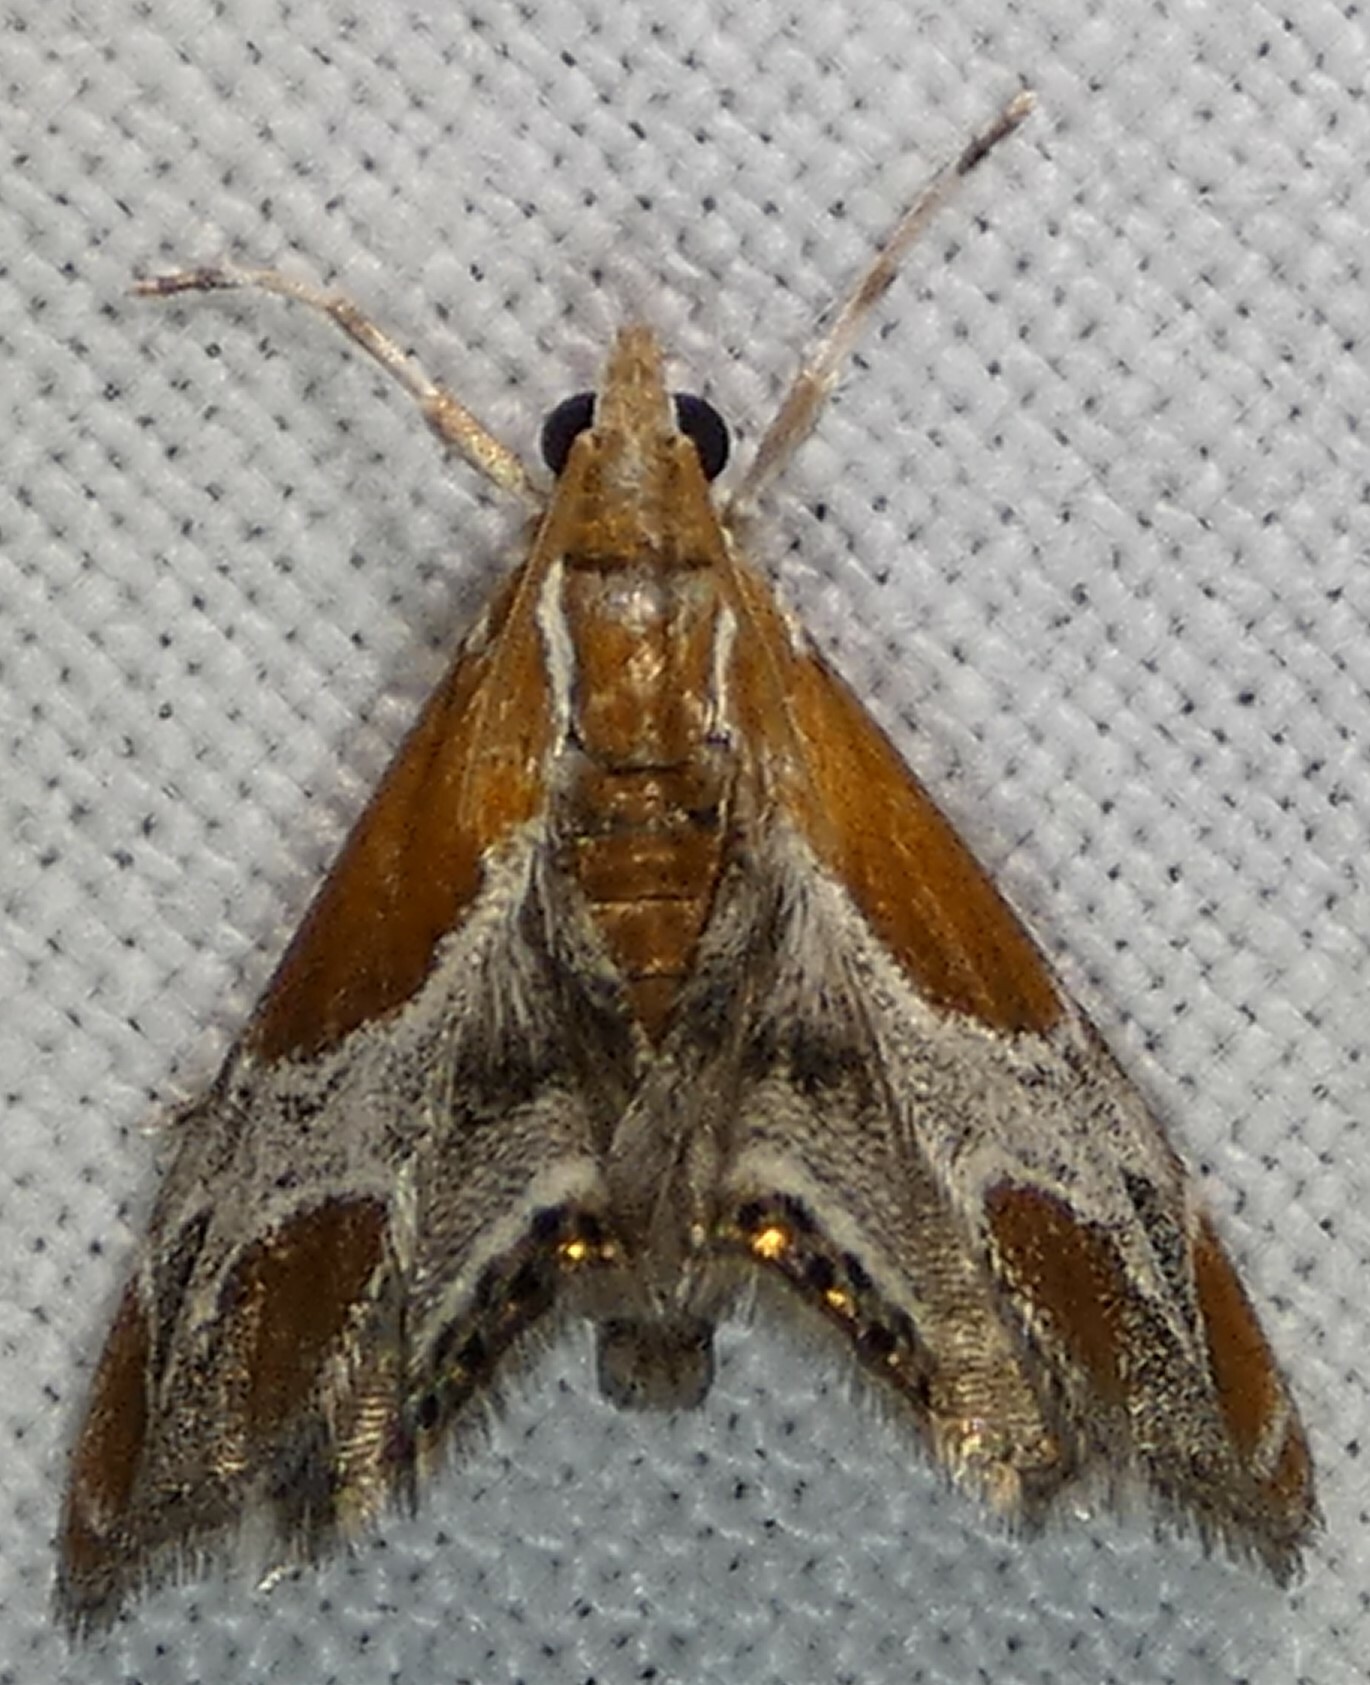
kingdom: Animalia
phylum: Arthropoda
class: Insecta
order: Lepidoptera
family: Crambidae
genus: Chalcoela
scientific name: Chalcoela pegasalis
